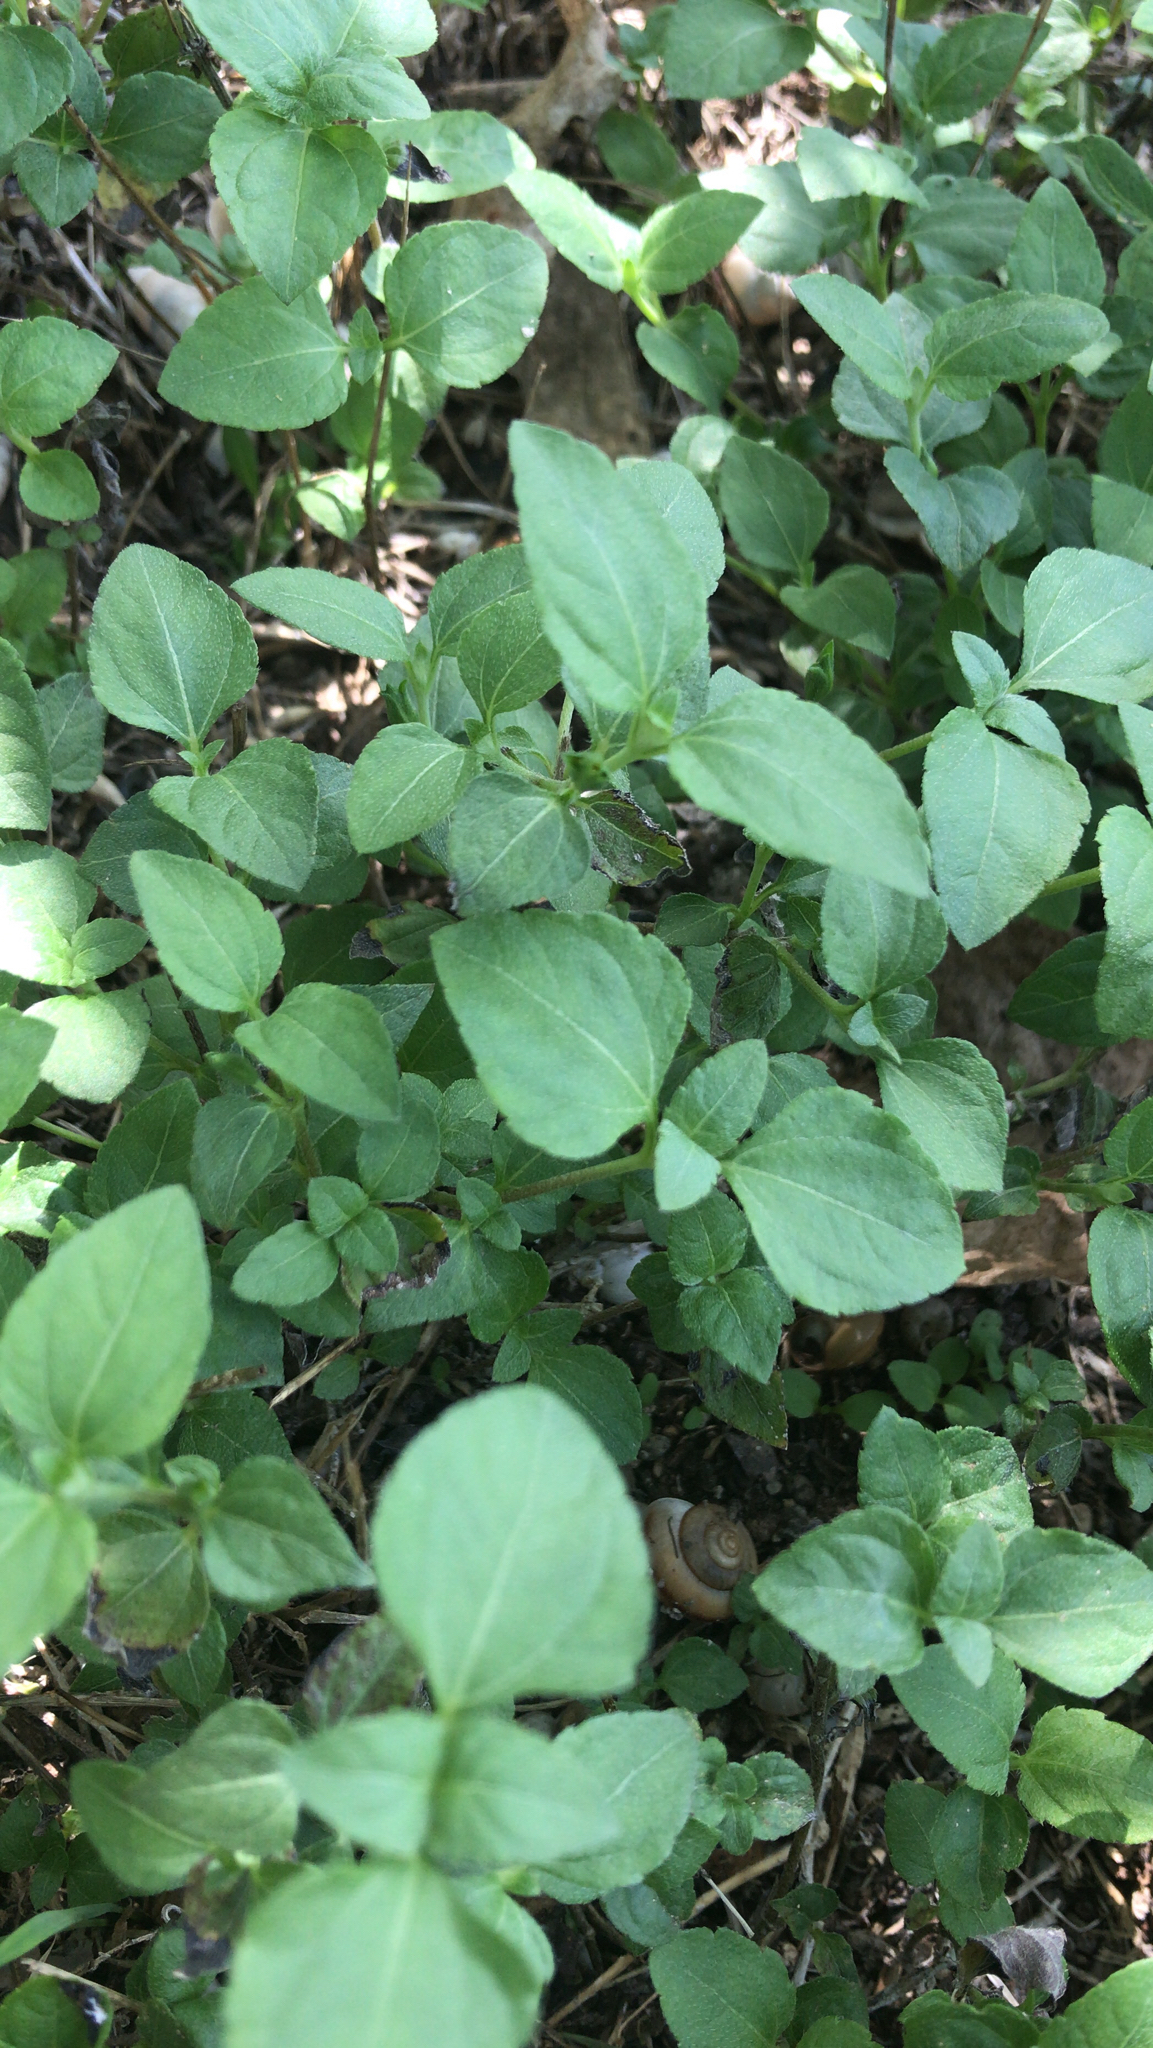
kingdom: Plantae
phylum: Tracheophyta
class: Magnoliopsida
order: Asterales
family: Asteraceae
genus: Calyptocarpus
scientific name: Calyptocarpus vialis
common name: Straggler daisy
